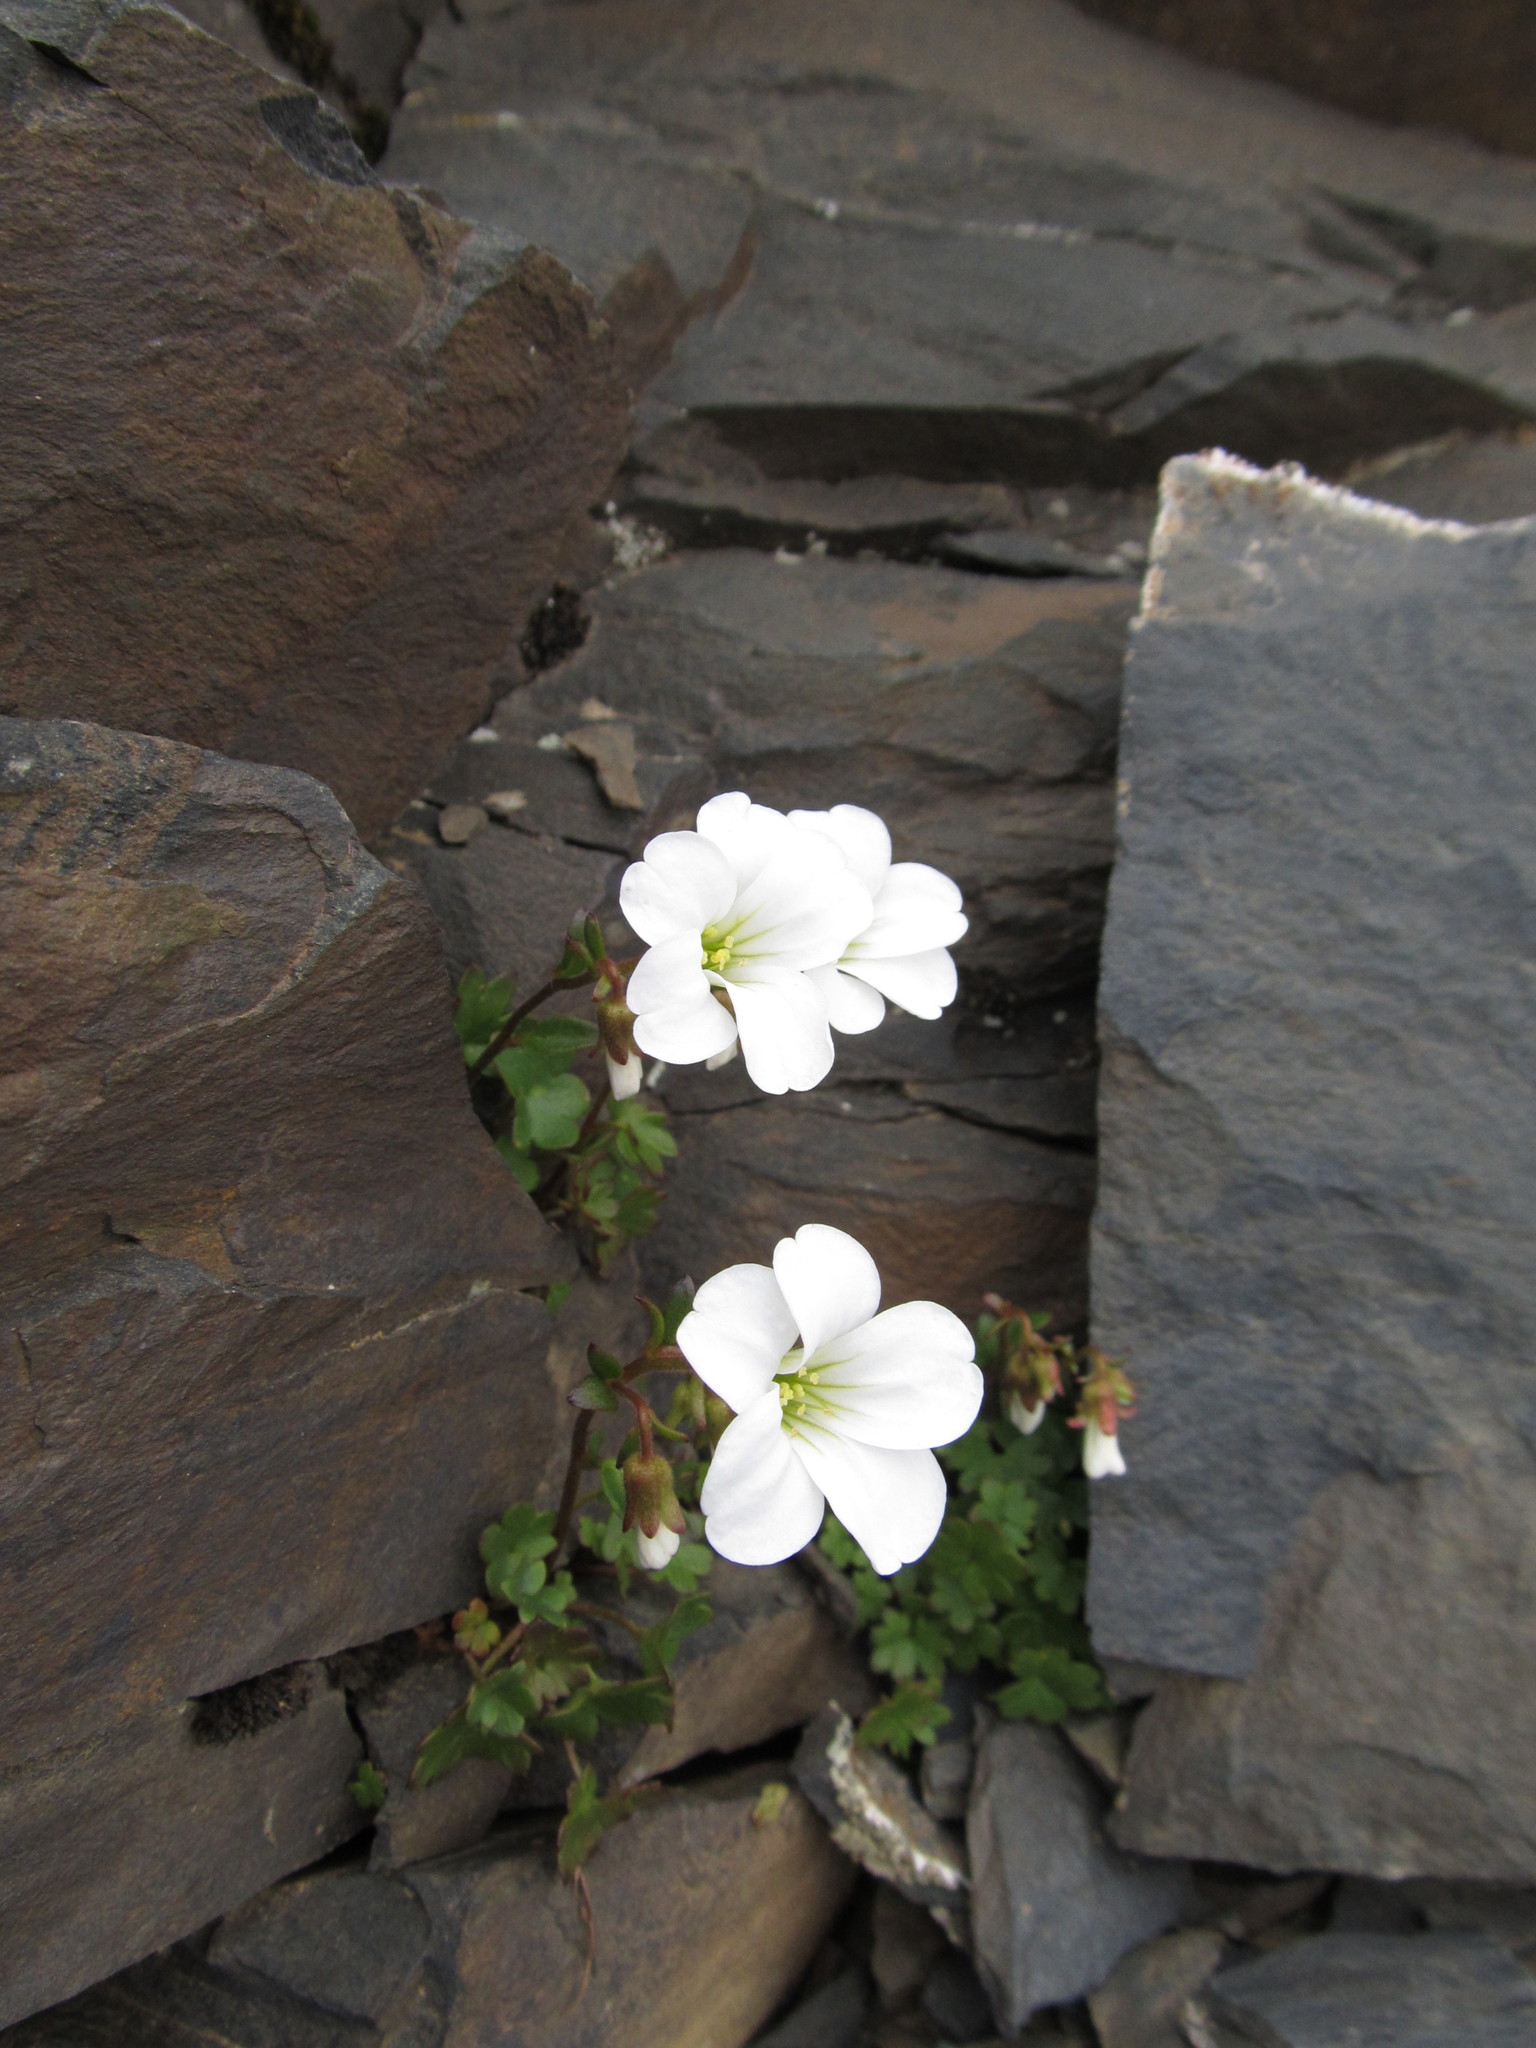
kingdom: Plantae
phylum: Tracheophyta
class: Magnoliopsida
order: Saxifragales
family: Saxifragaceae
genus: Saxifraga
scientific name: Saxifraga sibirica
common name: Siberian saxifrage
